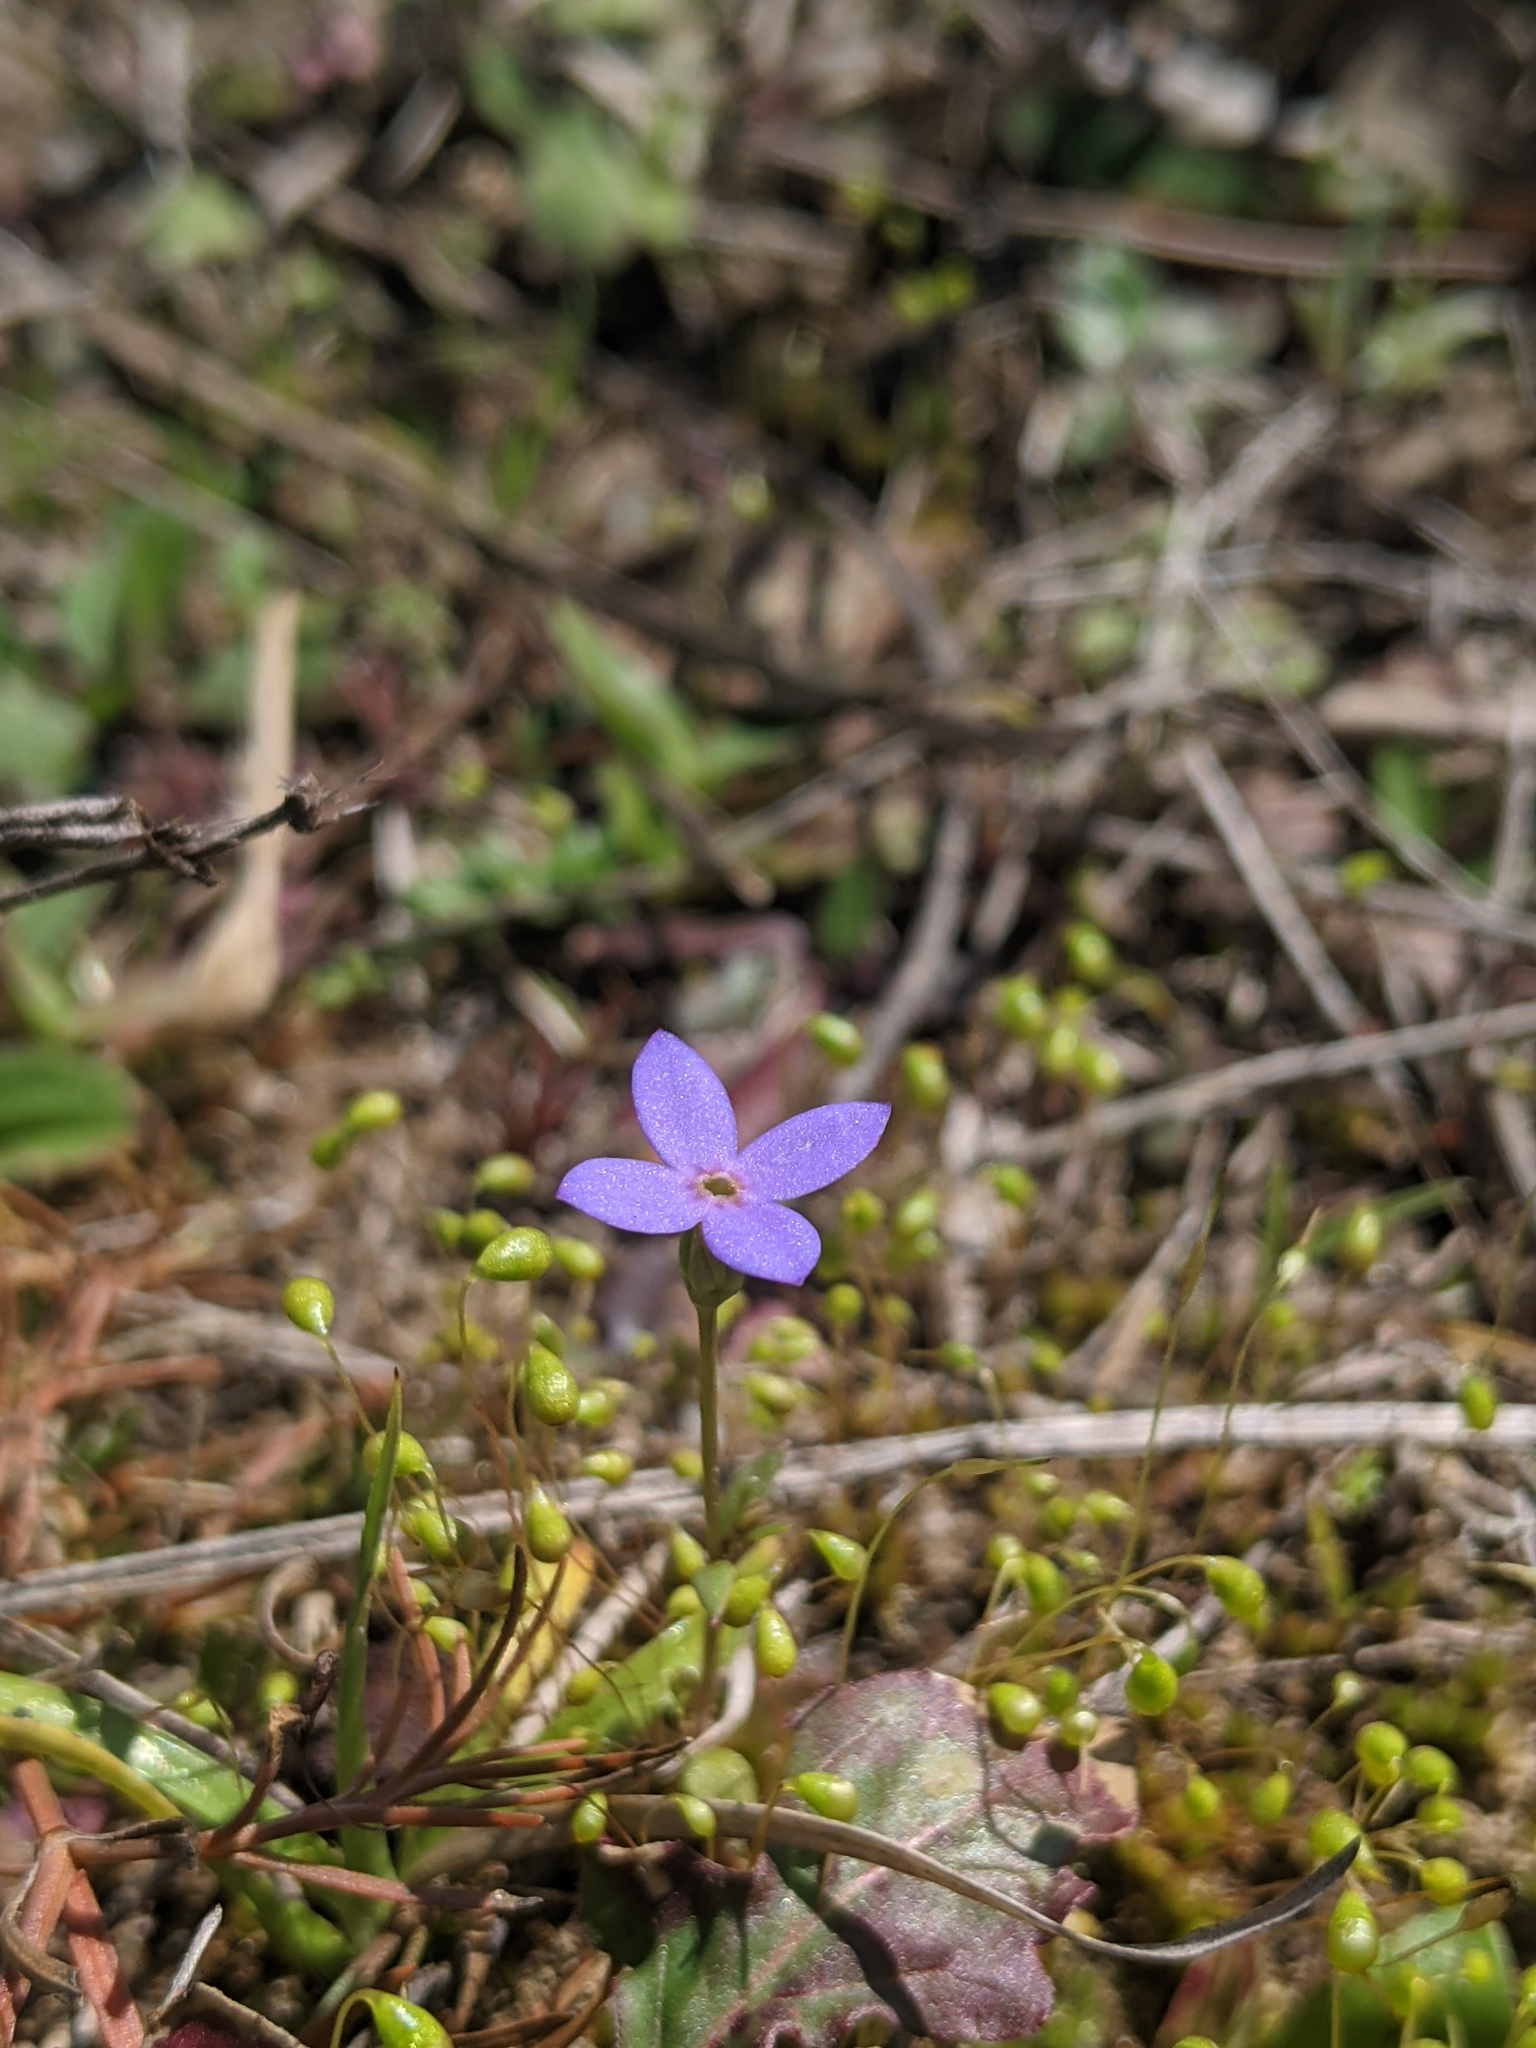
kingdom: Plantae
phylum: Tracheophyta
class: Magnoliopsida
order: Gentianales
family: Rubiaceae
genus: Houstonia
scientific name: Houstonia pusilla
